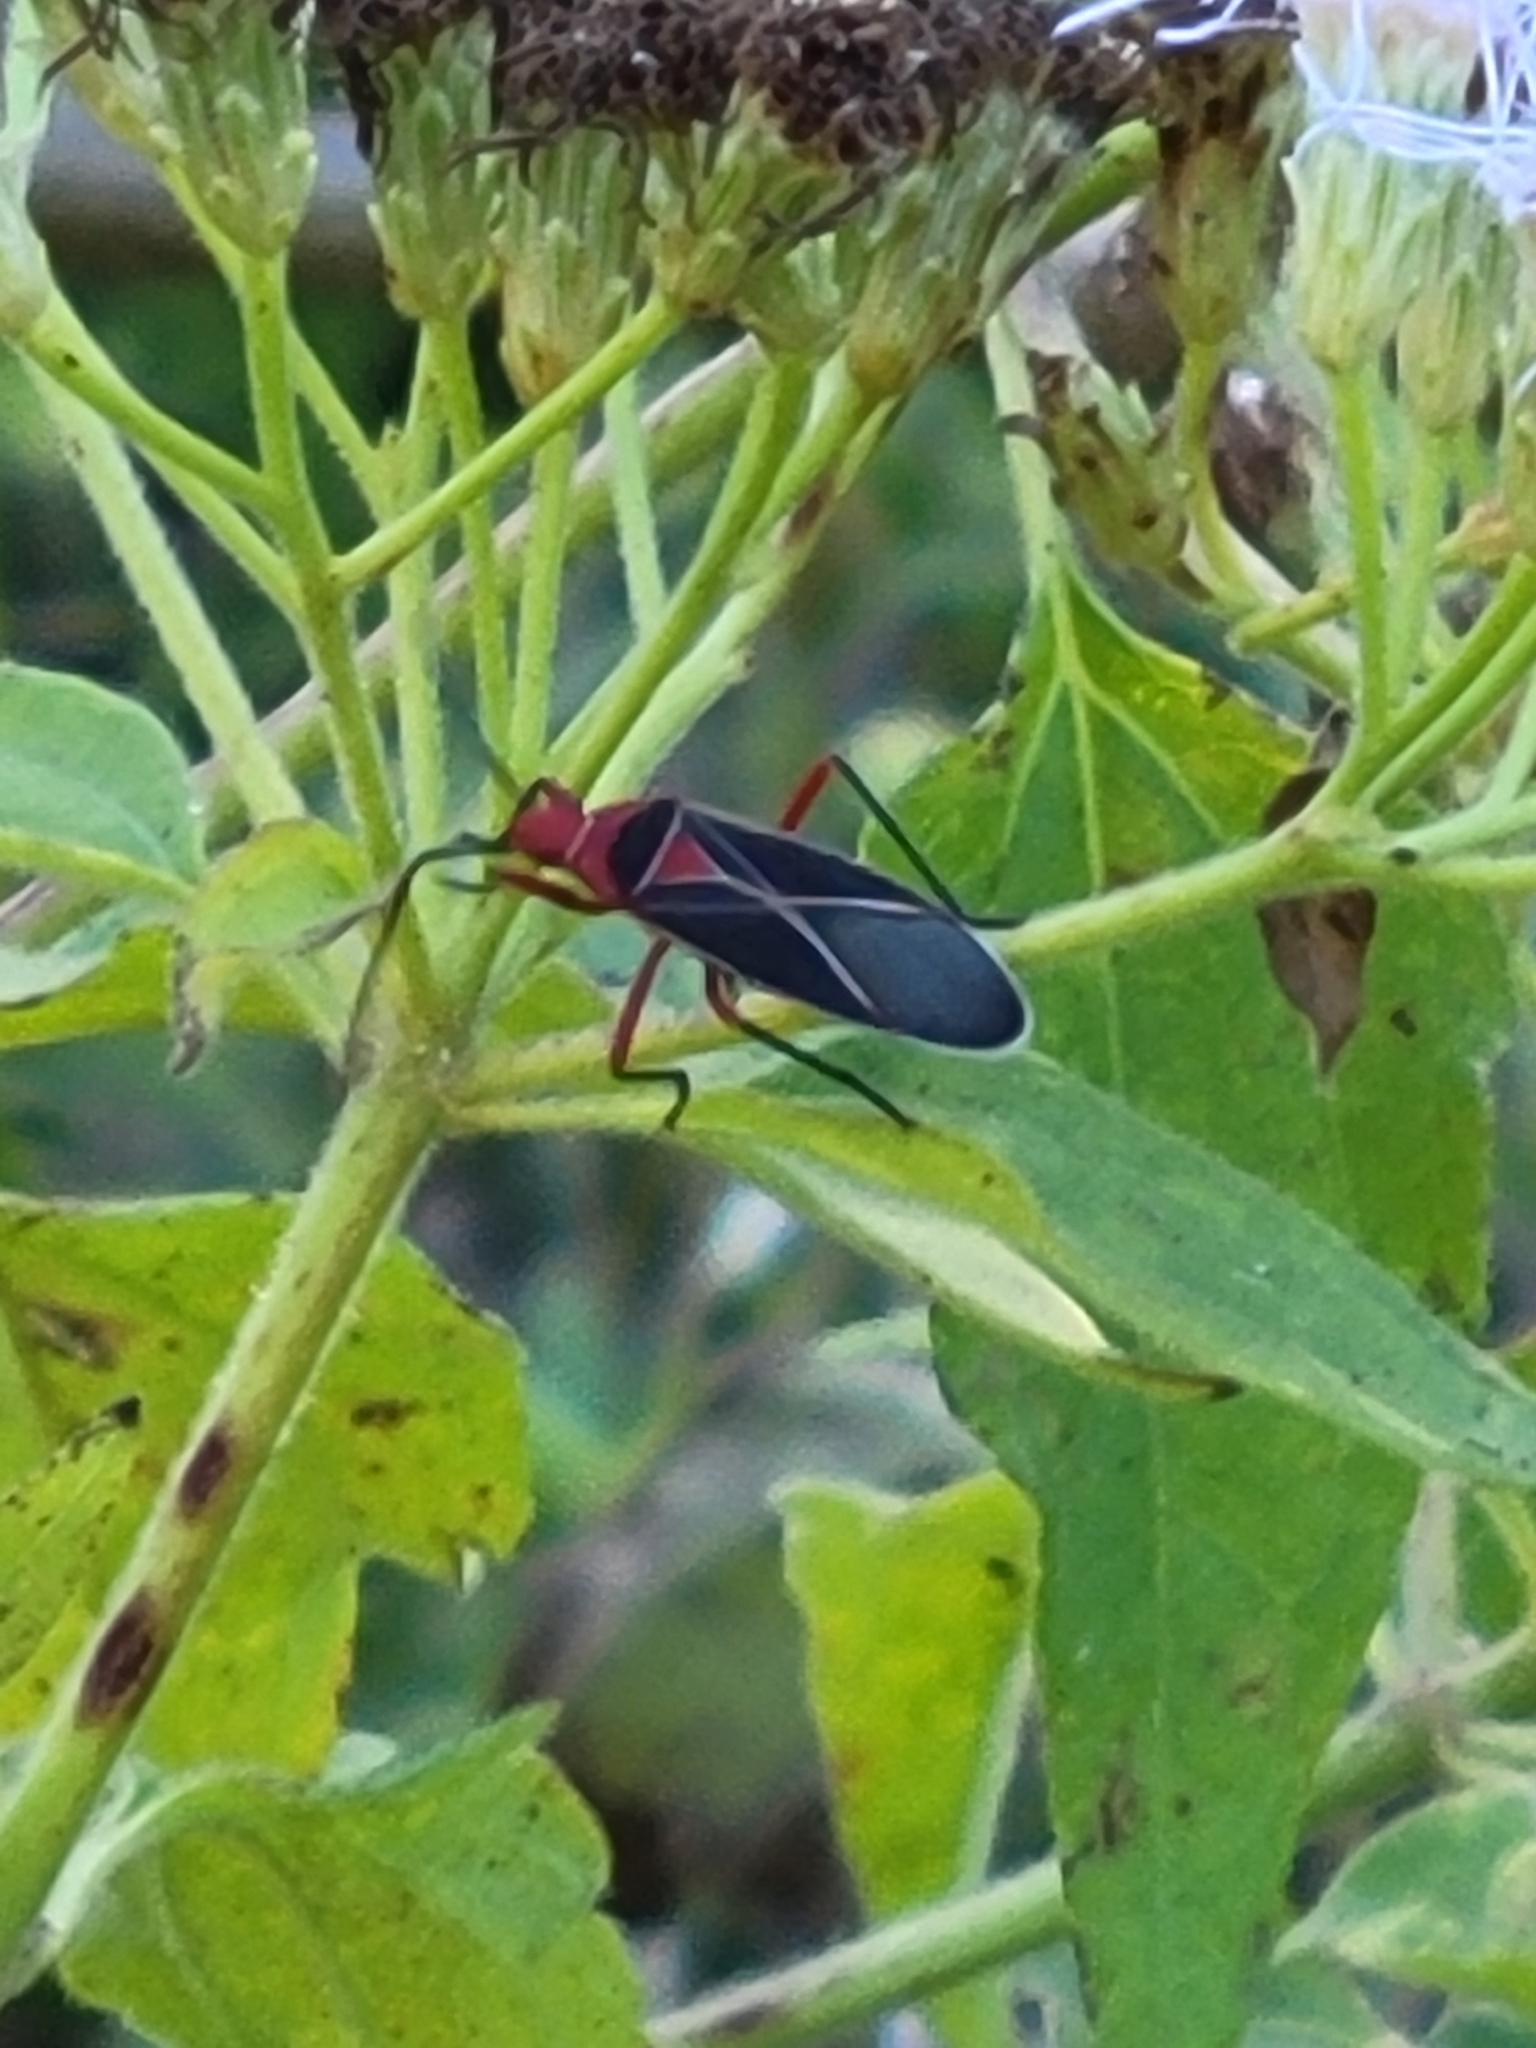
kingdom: Animalia
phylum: Arthropoda
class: Insecta
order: Hemiptera
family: Pyrrhocoridae
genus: Dysdercus
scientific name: Dysdercus suturellus
